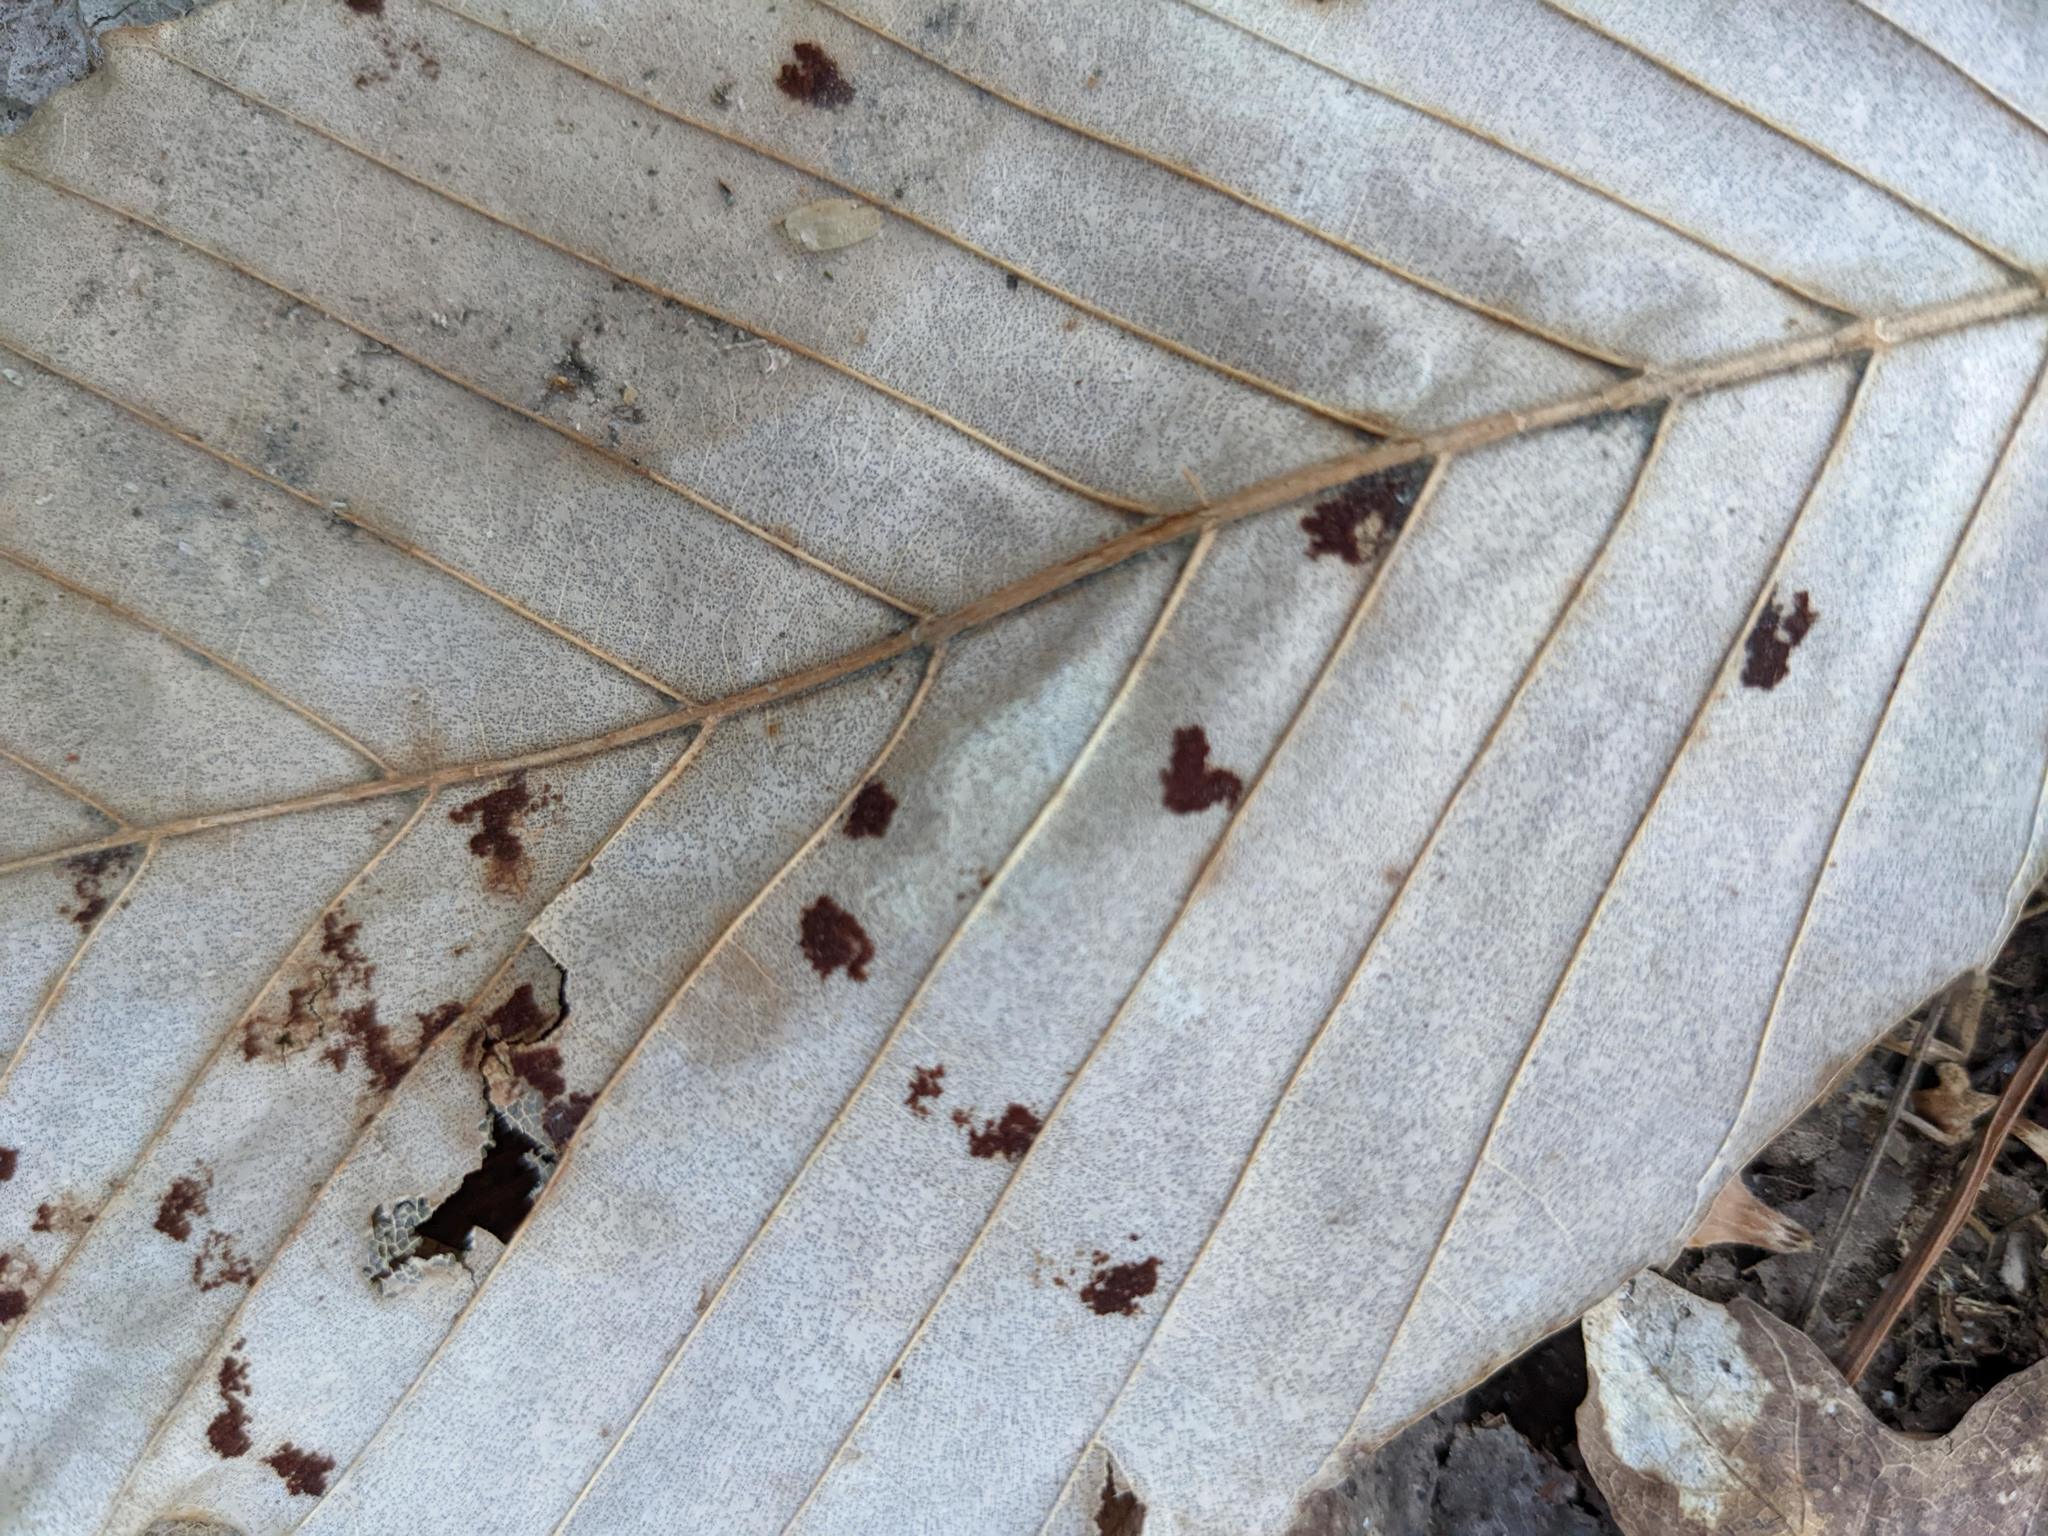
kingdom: Animalia
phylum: Arthropoda
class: Arachnida
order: Trombidiformes
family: Eriophyidae
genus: Acalitus
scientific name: Acalitus
